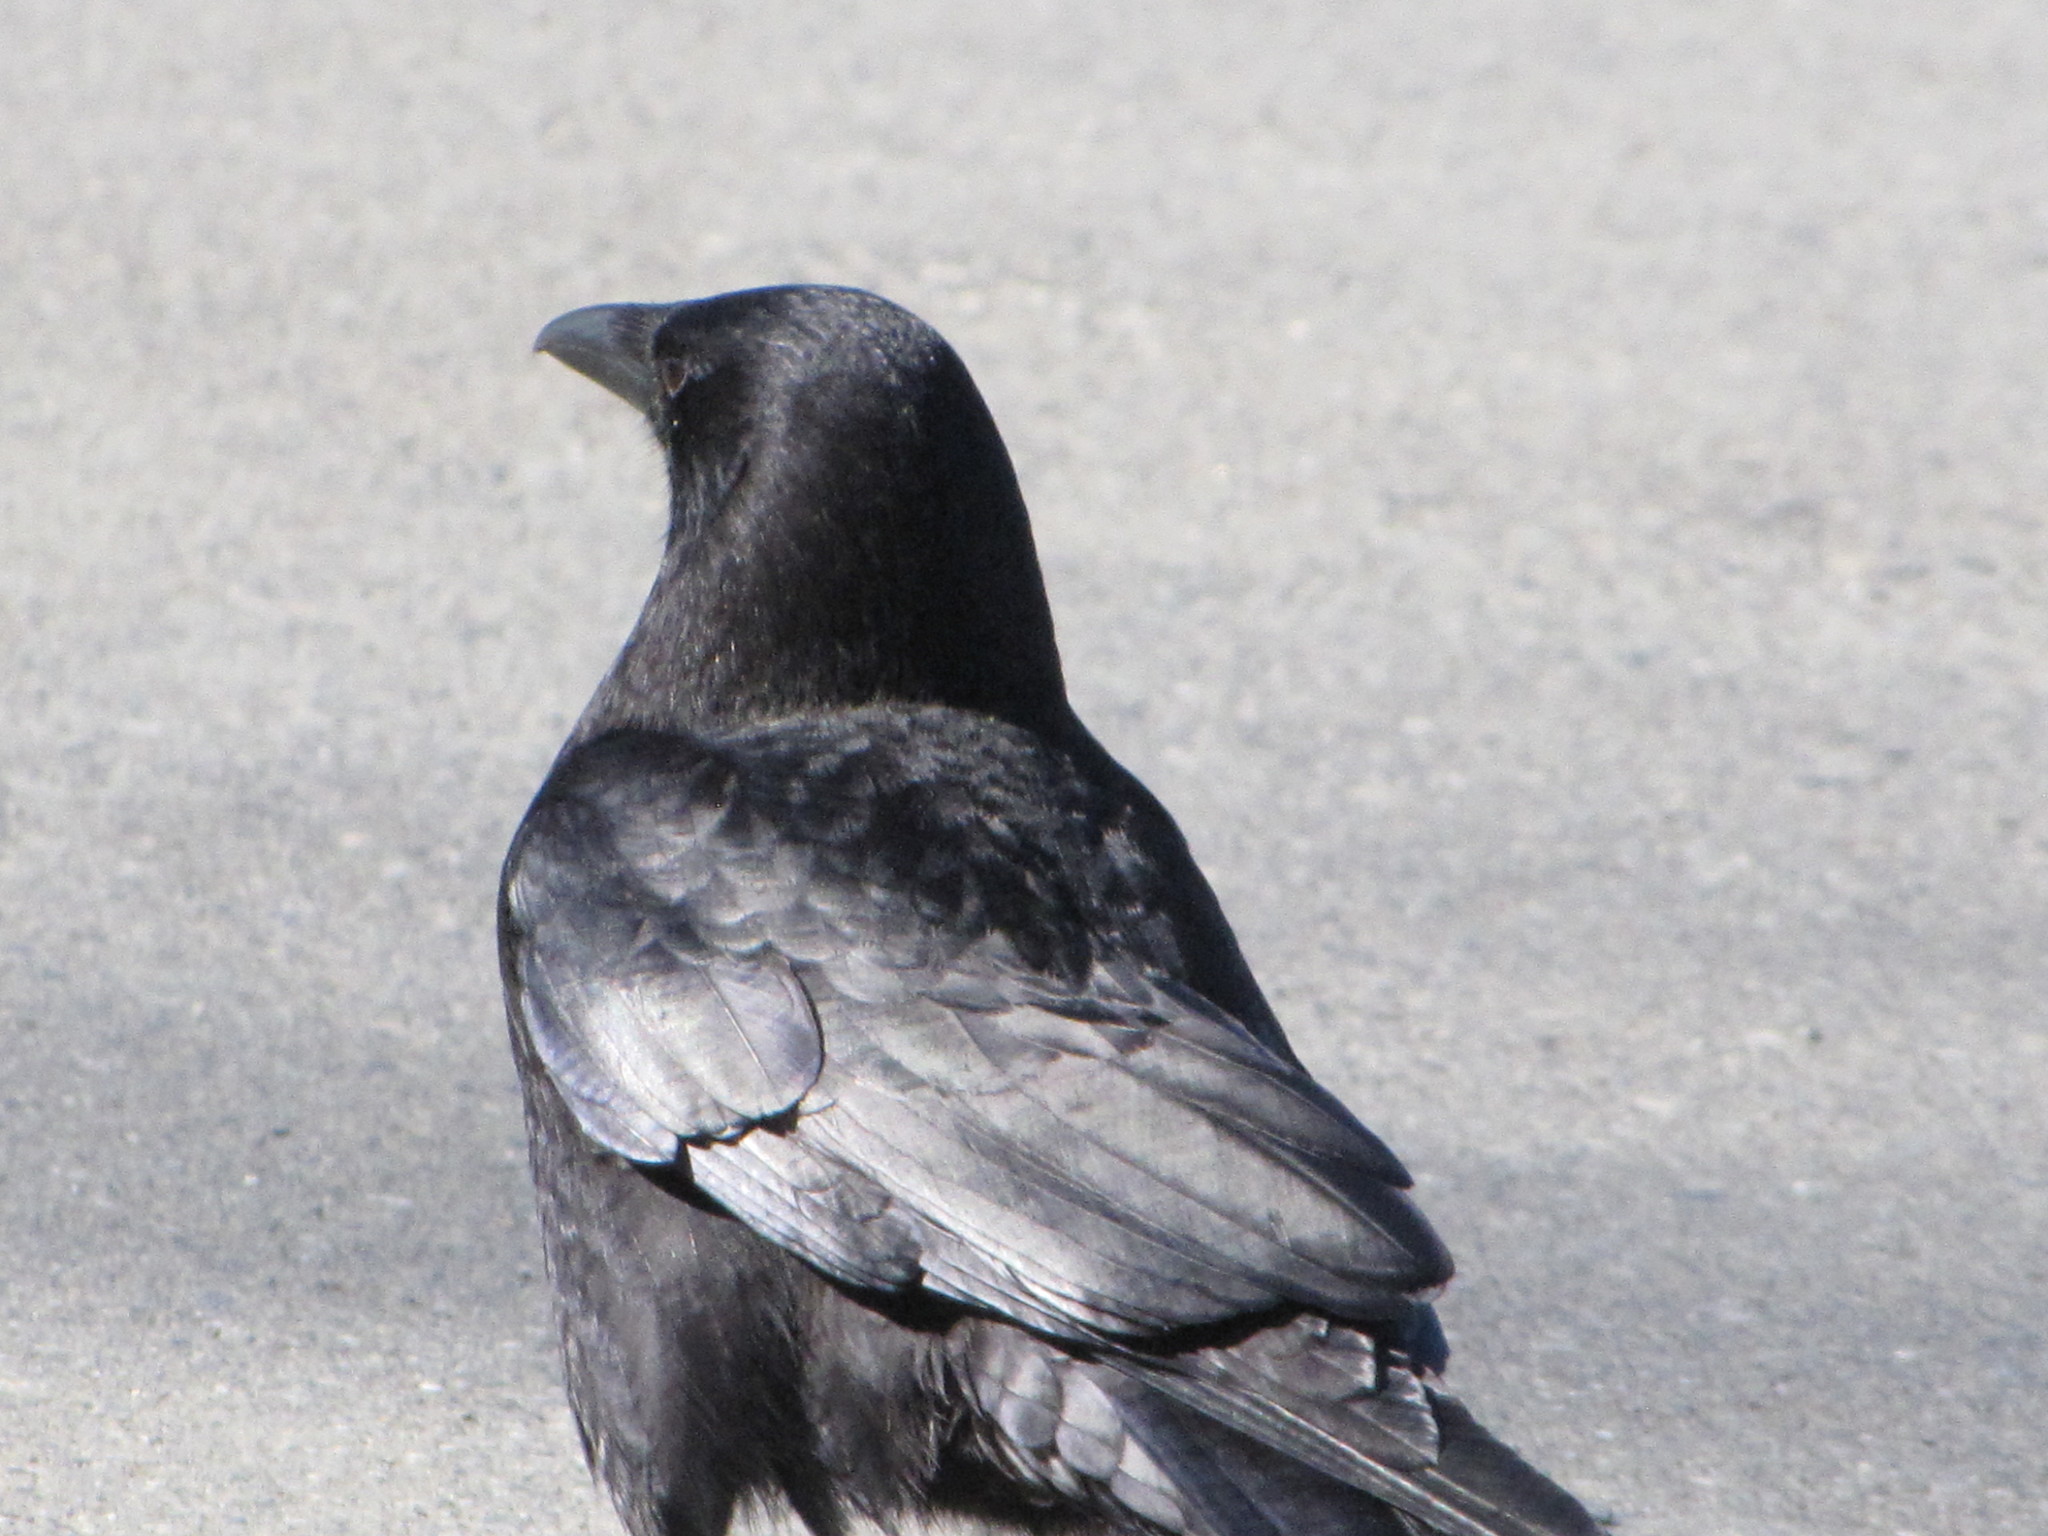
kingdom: Animalia
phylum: Chordata
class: Aves
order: Passeriformes
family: Corvidae
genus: Corvus
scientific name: Corvus corax
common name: Common raven
